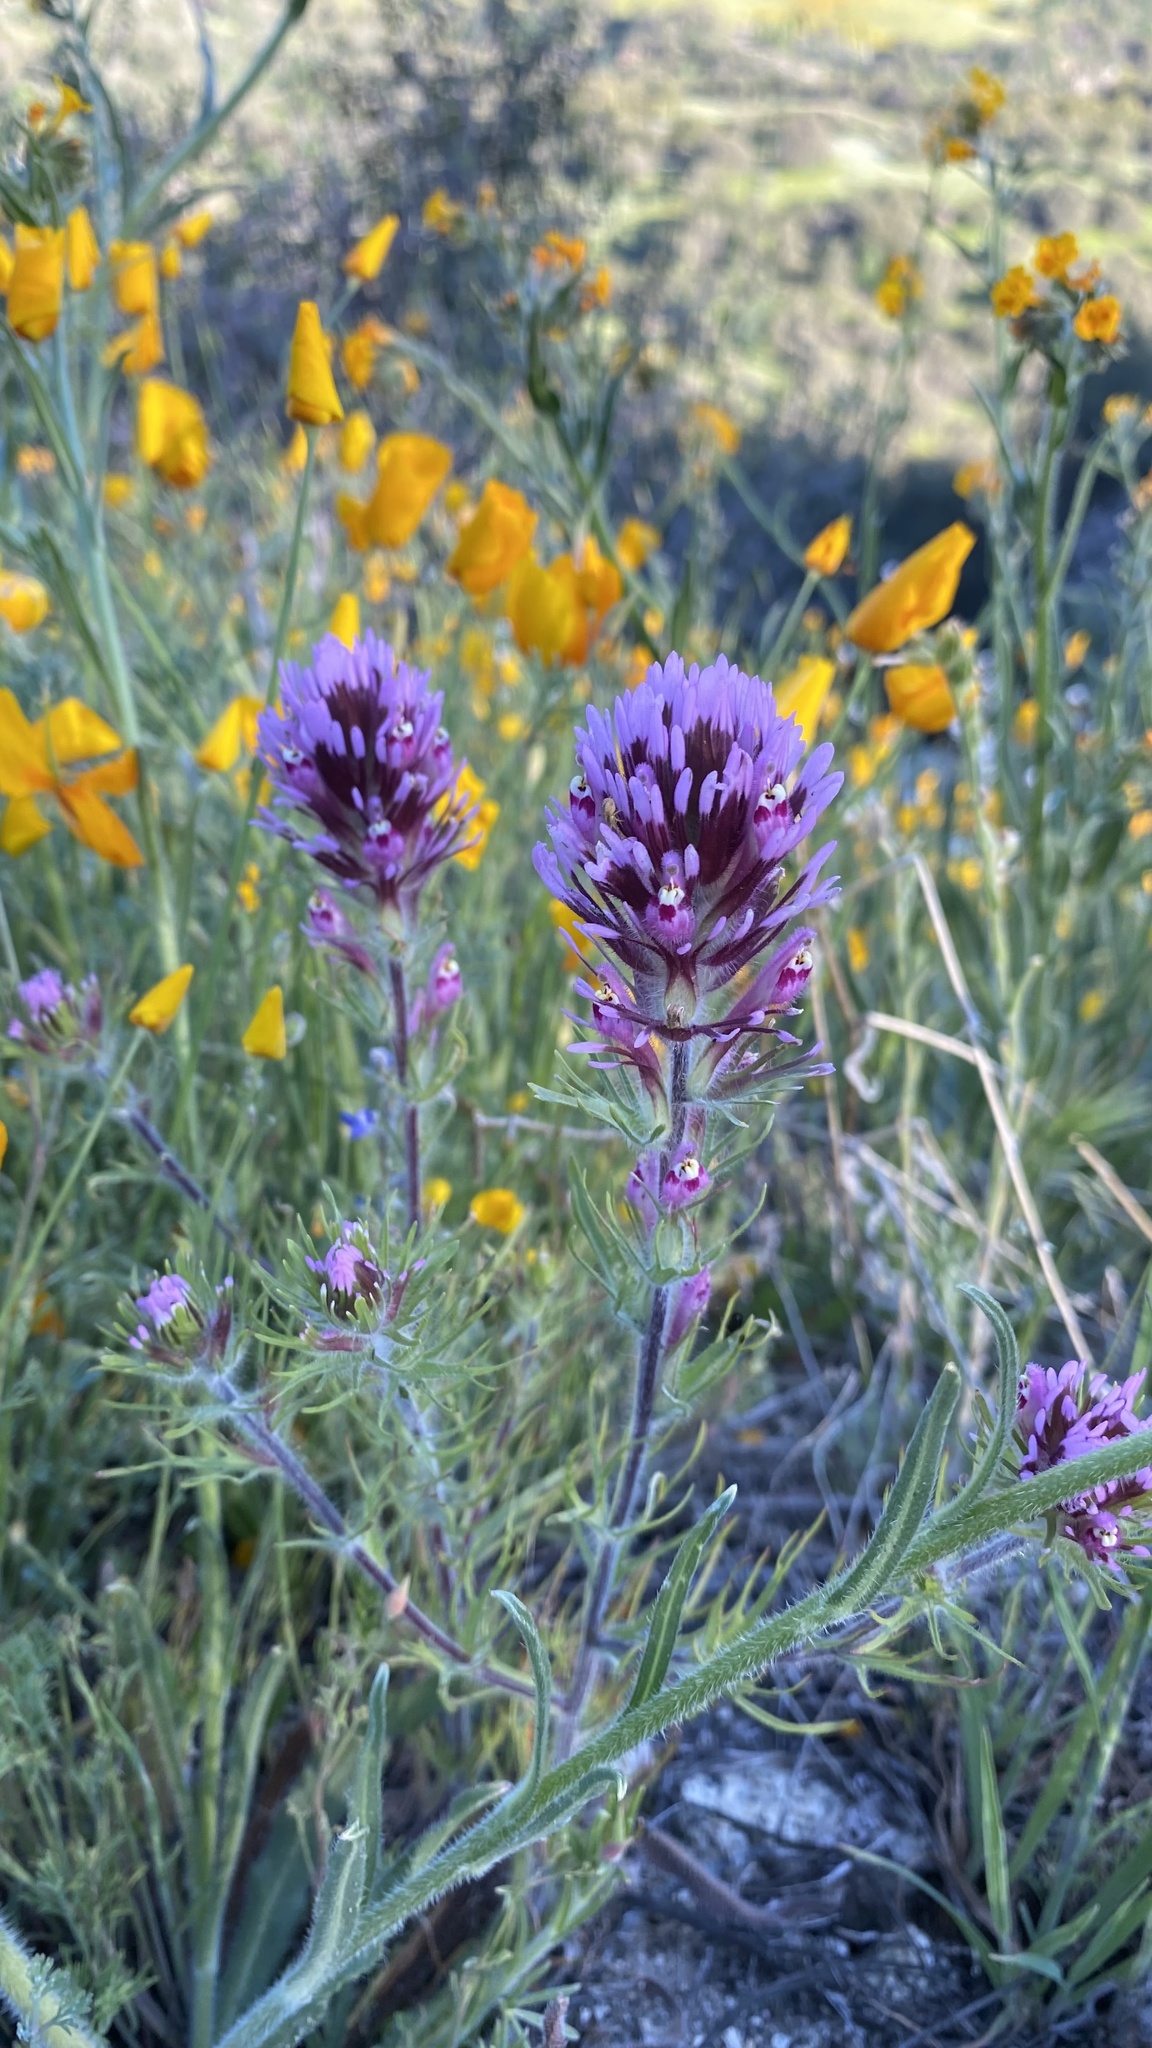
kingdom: Plantae
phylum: Tracheophyta
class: Magnoliopsida
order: Lamiales
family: Orobanchaceae
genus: Castilleja
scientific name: Castilleja exserta
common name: Purple owl-clover
